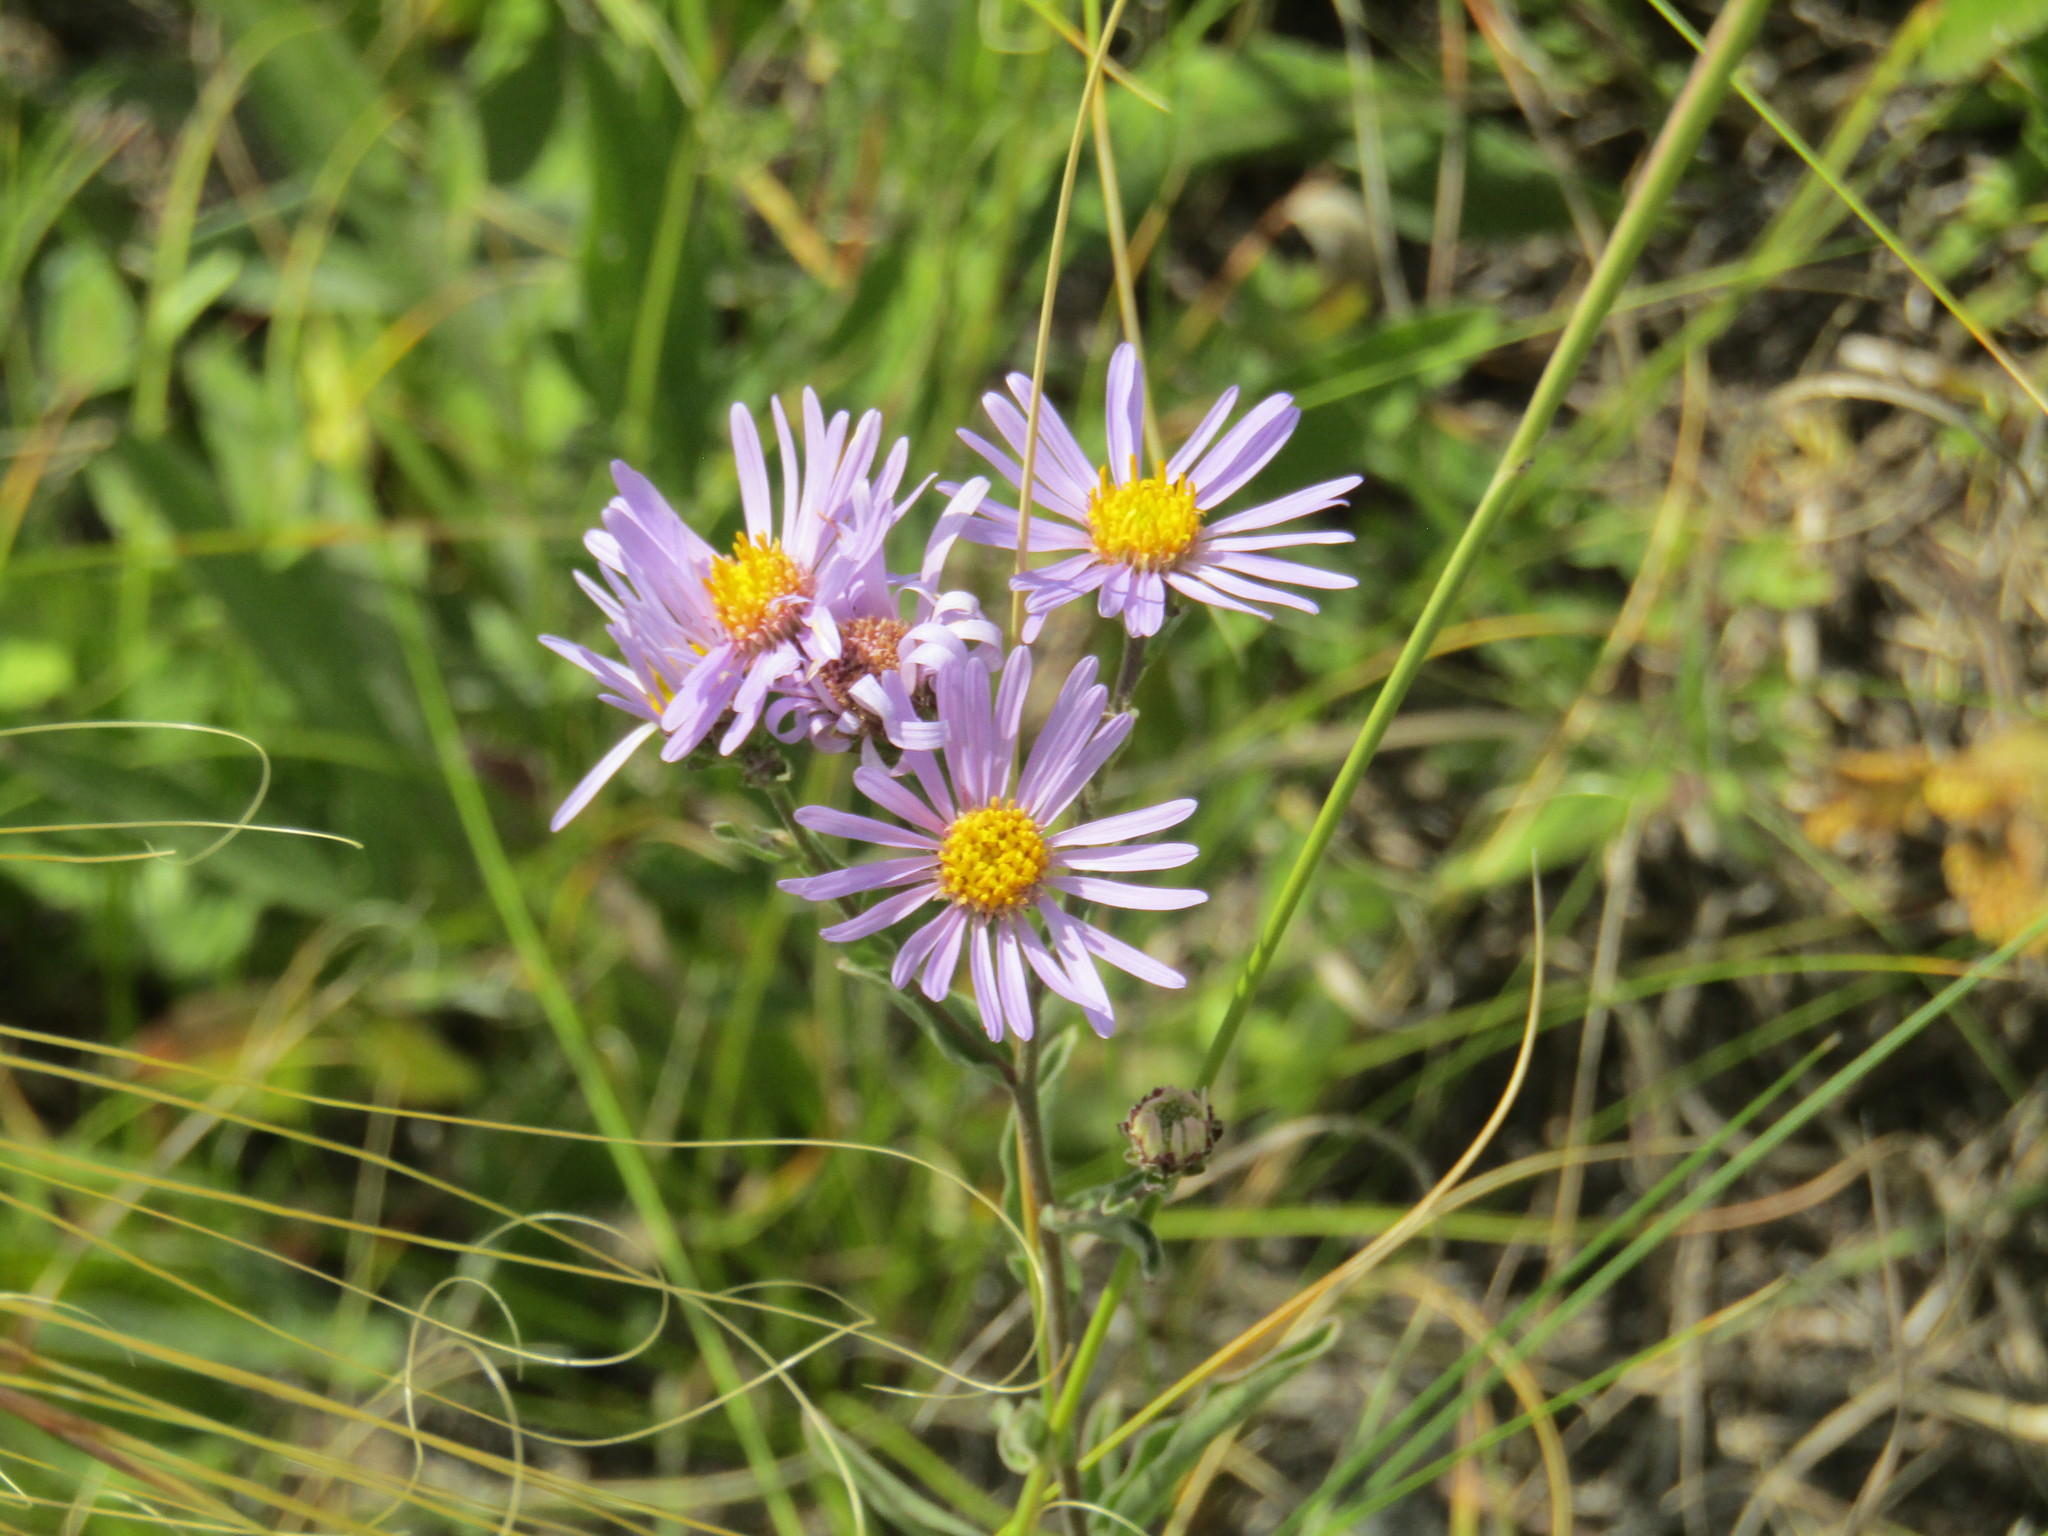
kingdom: Plantae
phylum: Tracheophyta
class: Magnoliopsida
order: Asterales
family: Asteraceae
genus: Aster
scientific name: Aster amellus
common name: European michaelmas daisy
